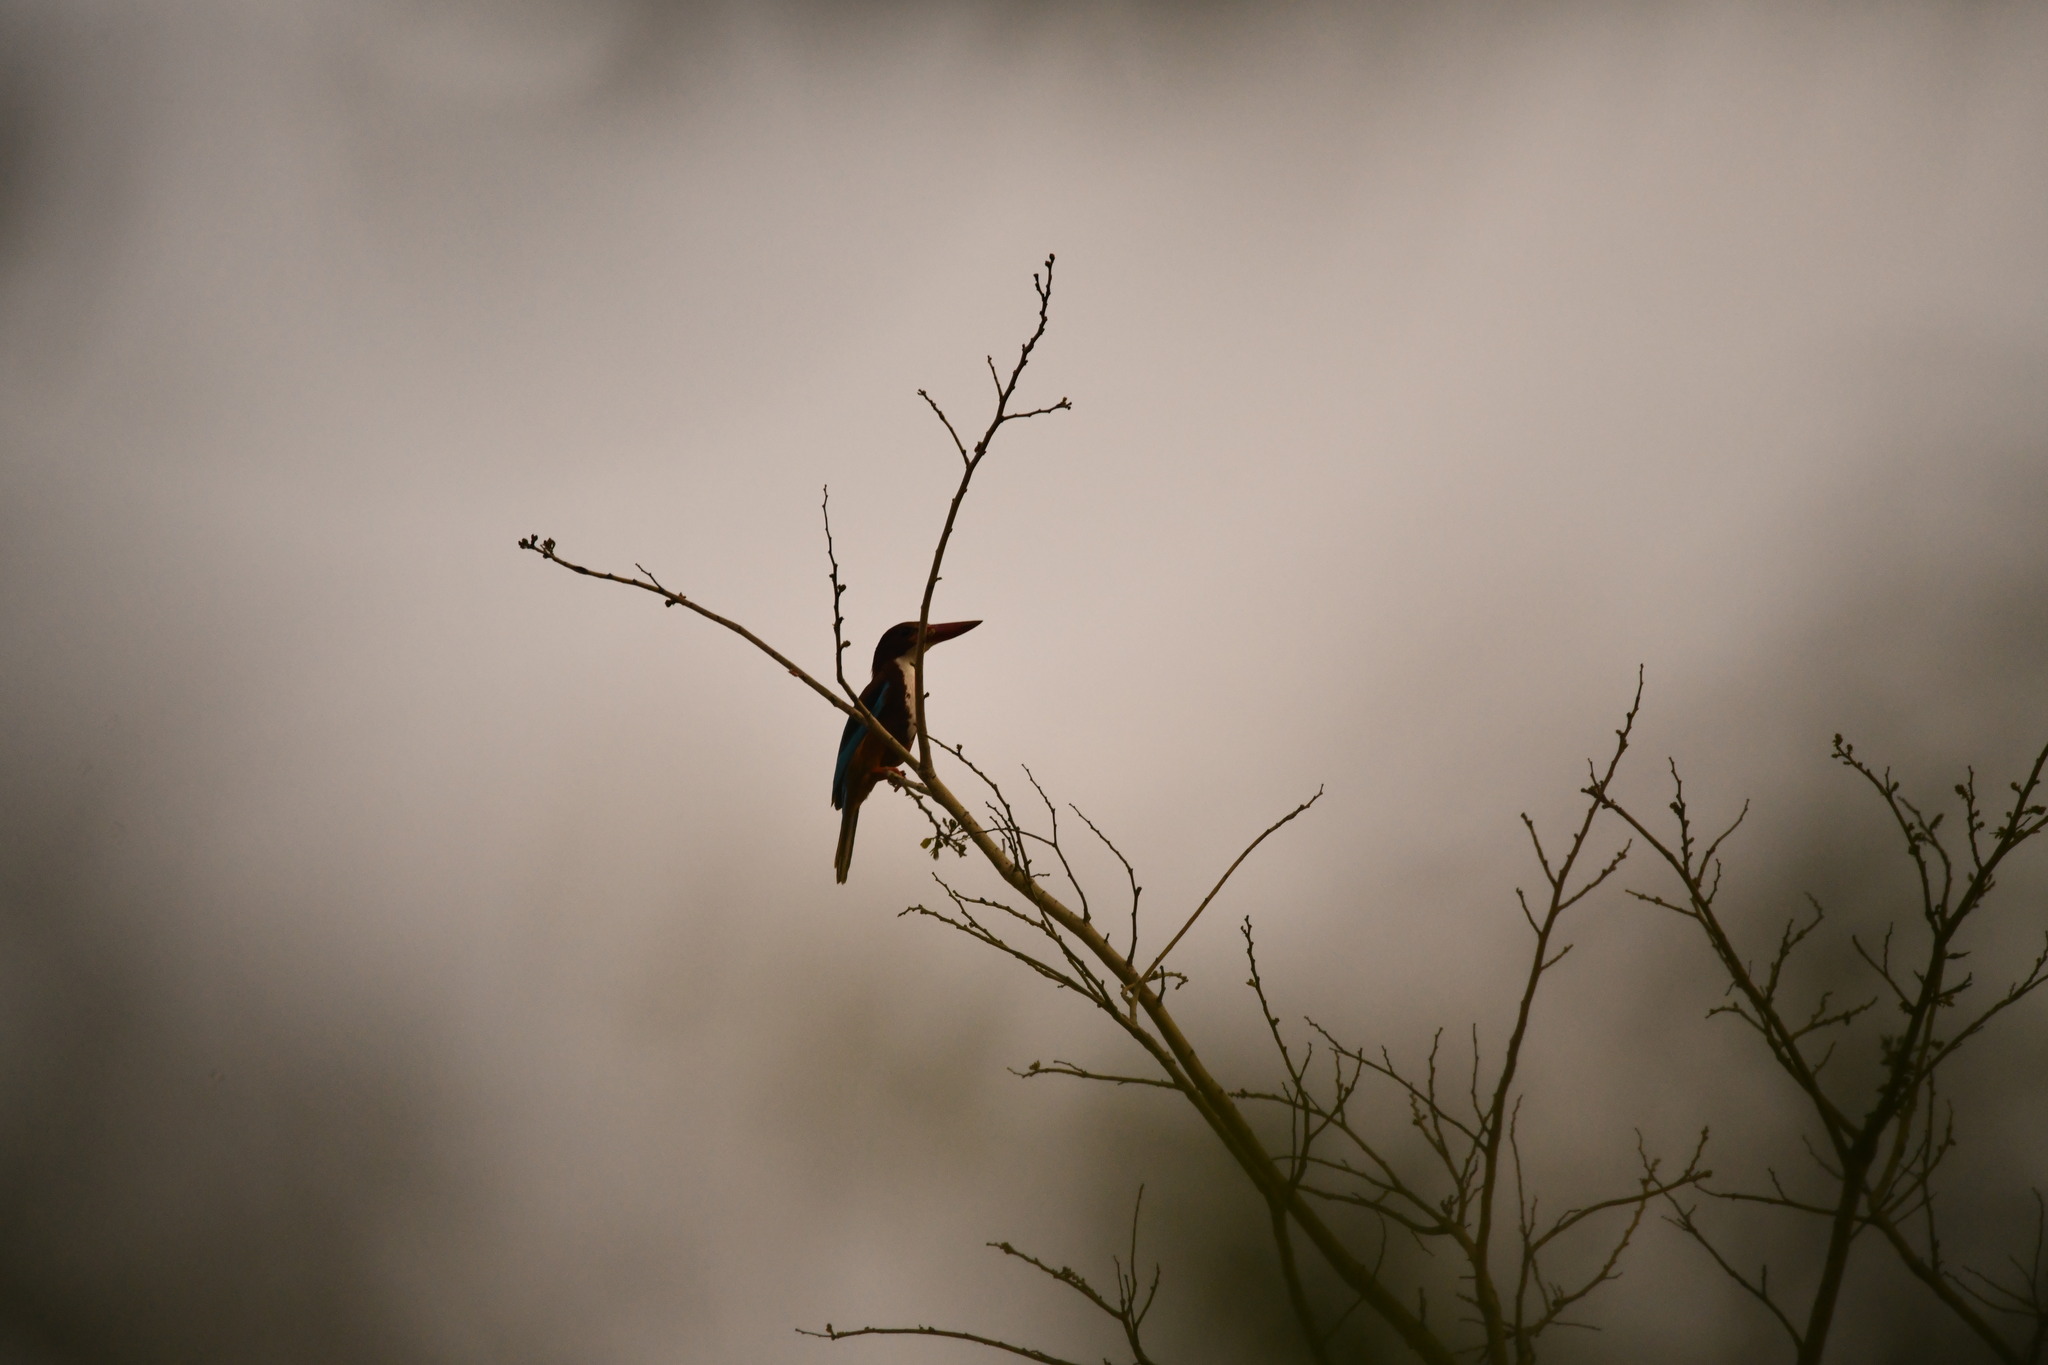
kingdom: Animalia
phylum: Chordata
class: Aves
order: Coraciiformes
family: Alcedinidae
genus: Halcyon
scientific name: Halcyon smyrnensis
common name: White-throated kingfisher
